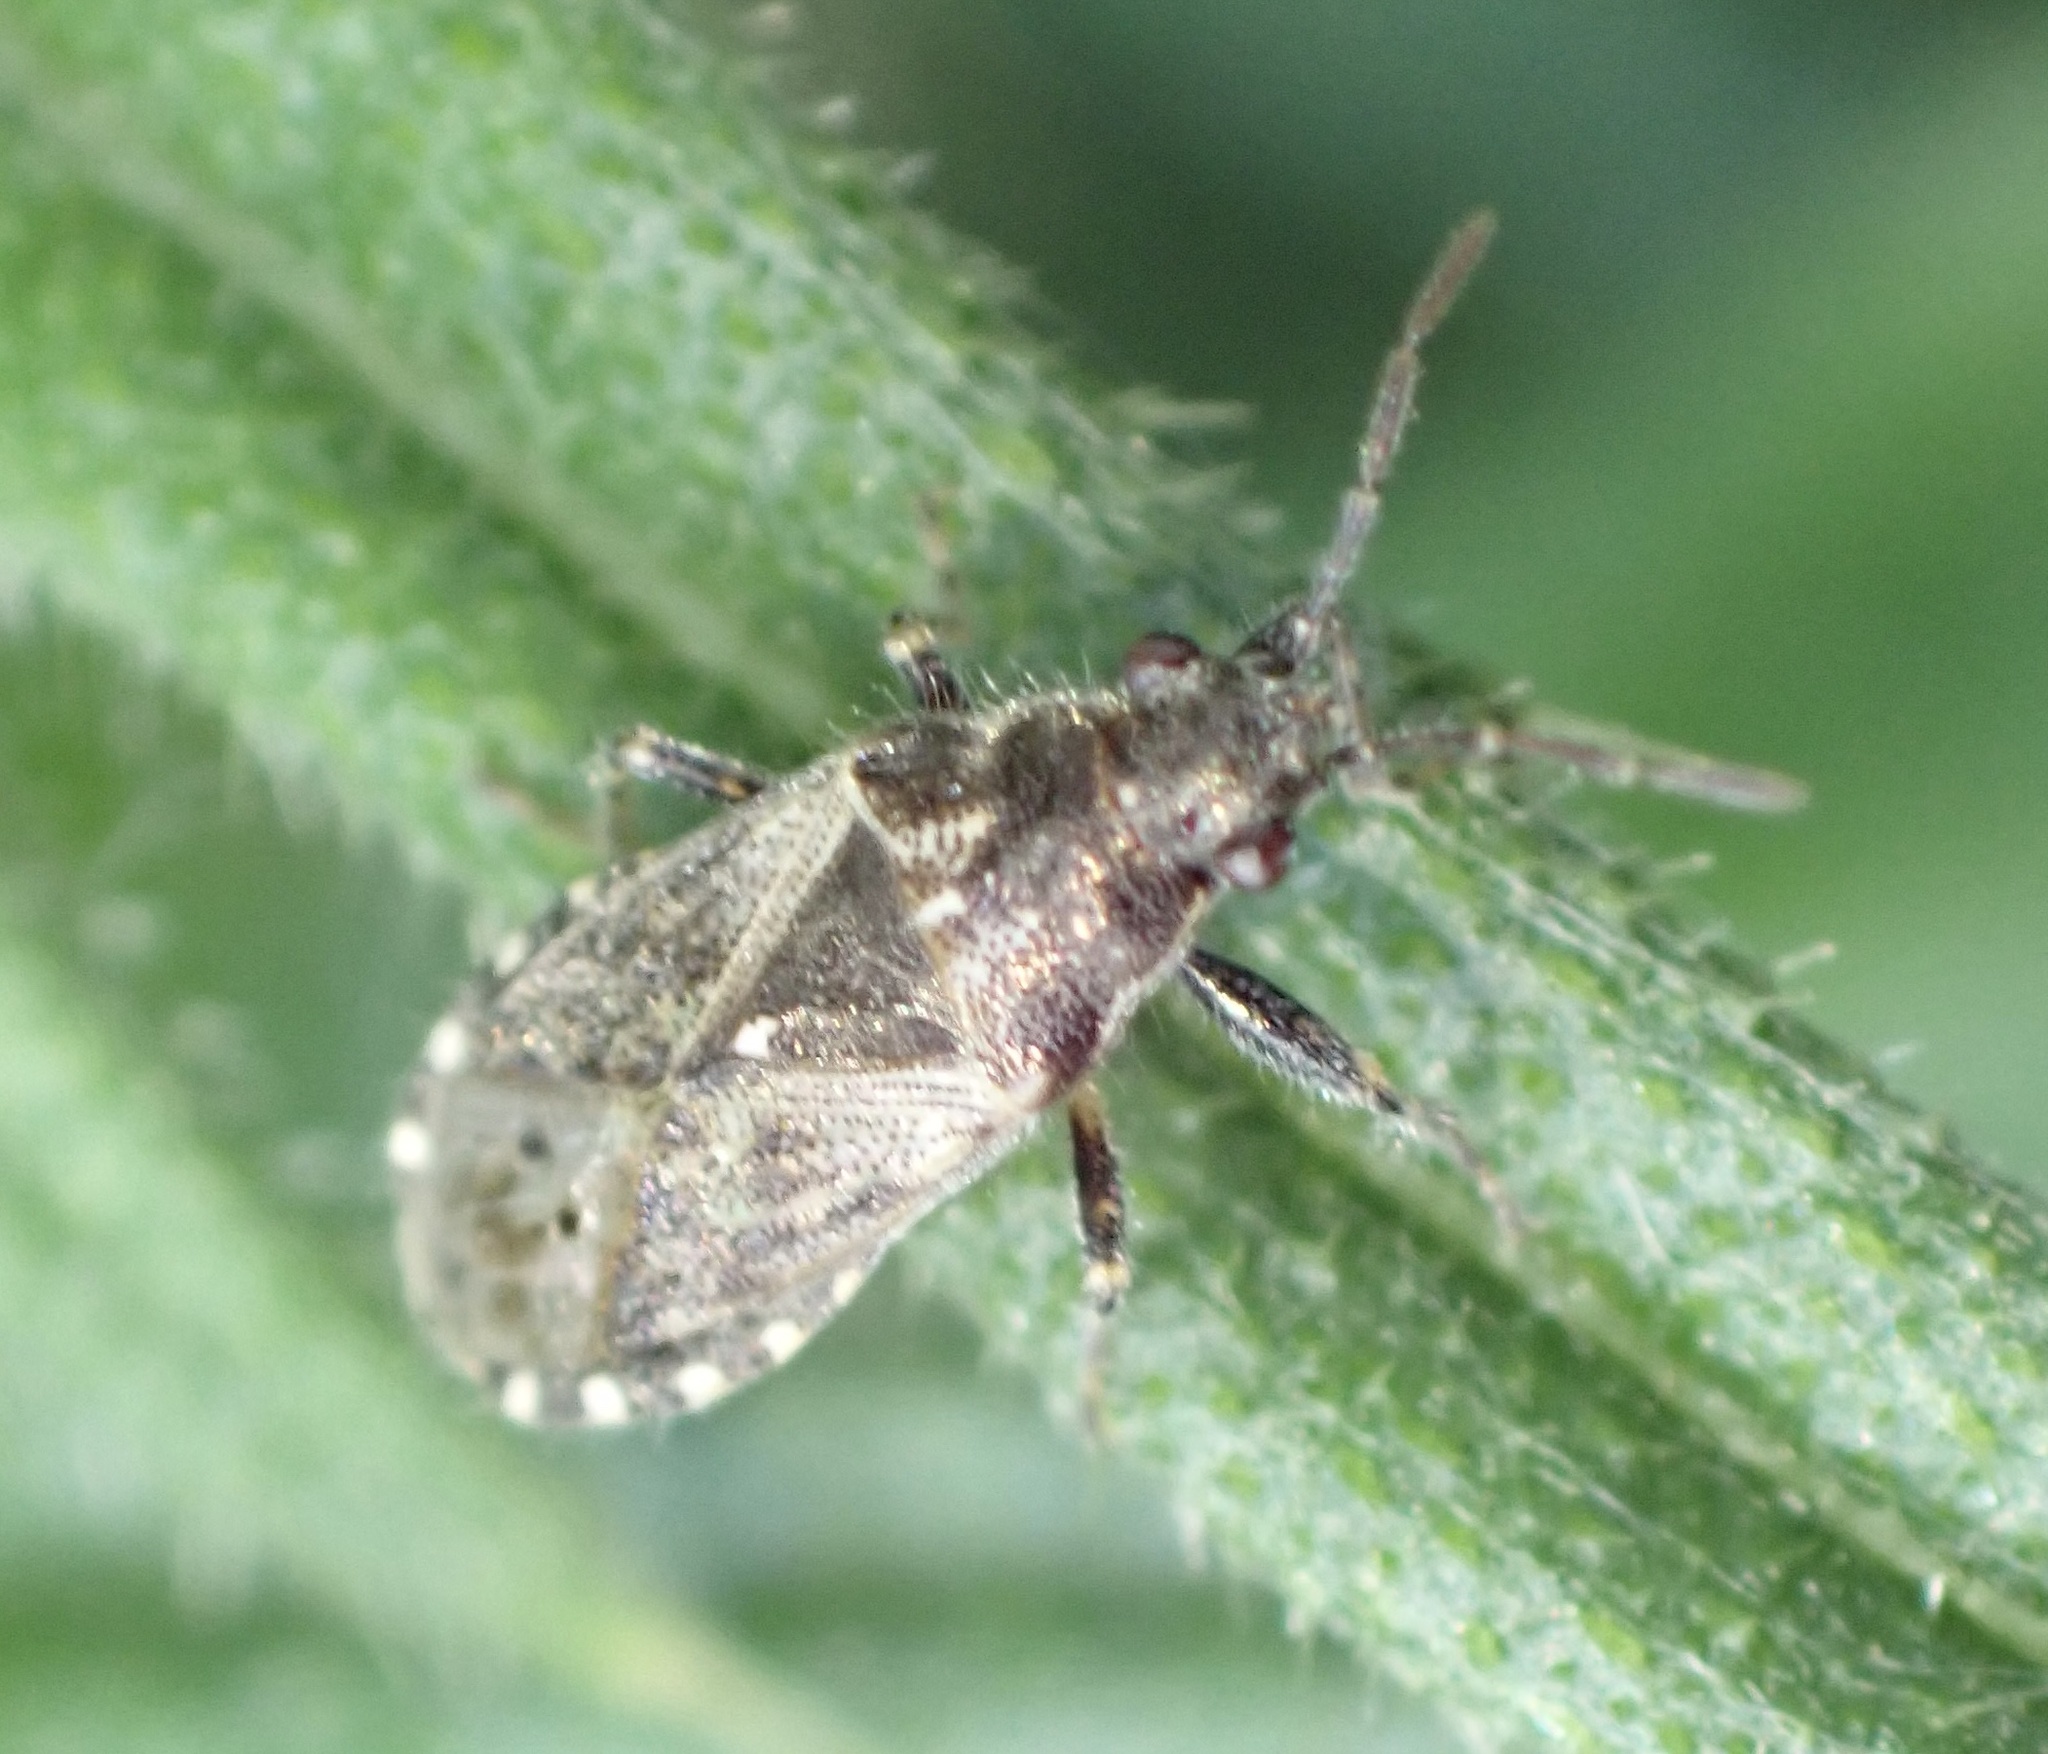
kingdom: Animalia
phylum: Arthropoda
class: Insecta
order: Hemiptera
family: Heterogastridae
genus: Heterogaster
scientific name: Heterogaster urticae
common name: Seed bug
